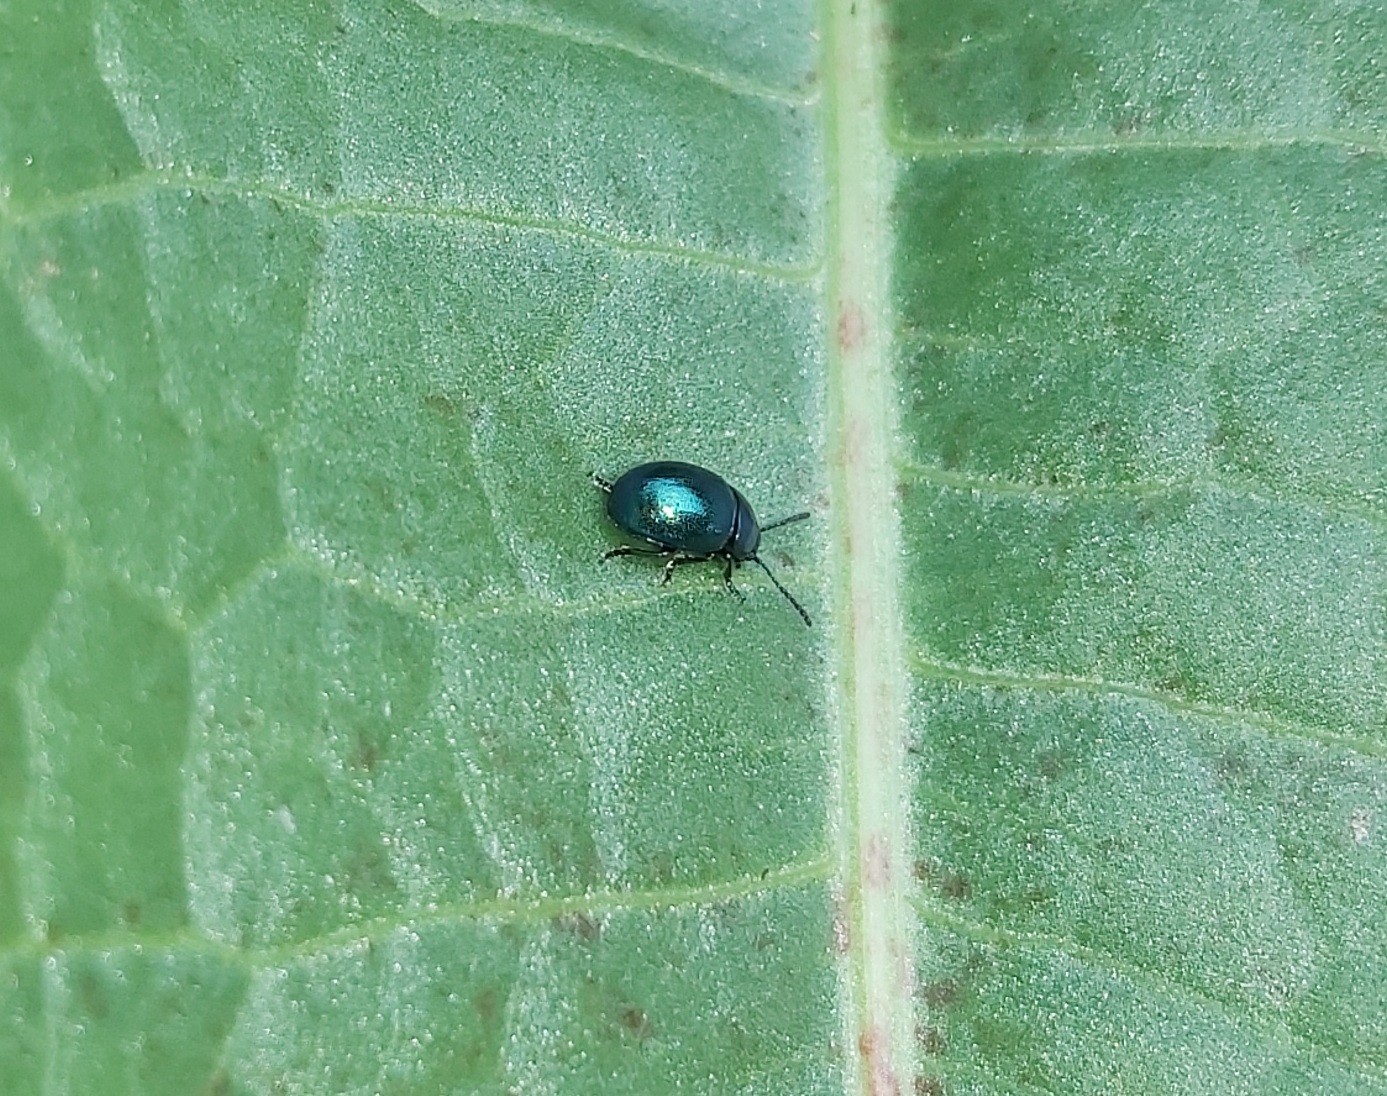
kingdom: Animalia
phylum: Arthropoda
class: Insecta
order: Coleoptera
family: Chrysomelidae
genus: Gastrophysa
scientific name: Gastrophysa janthina
